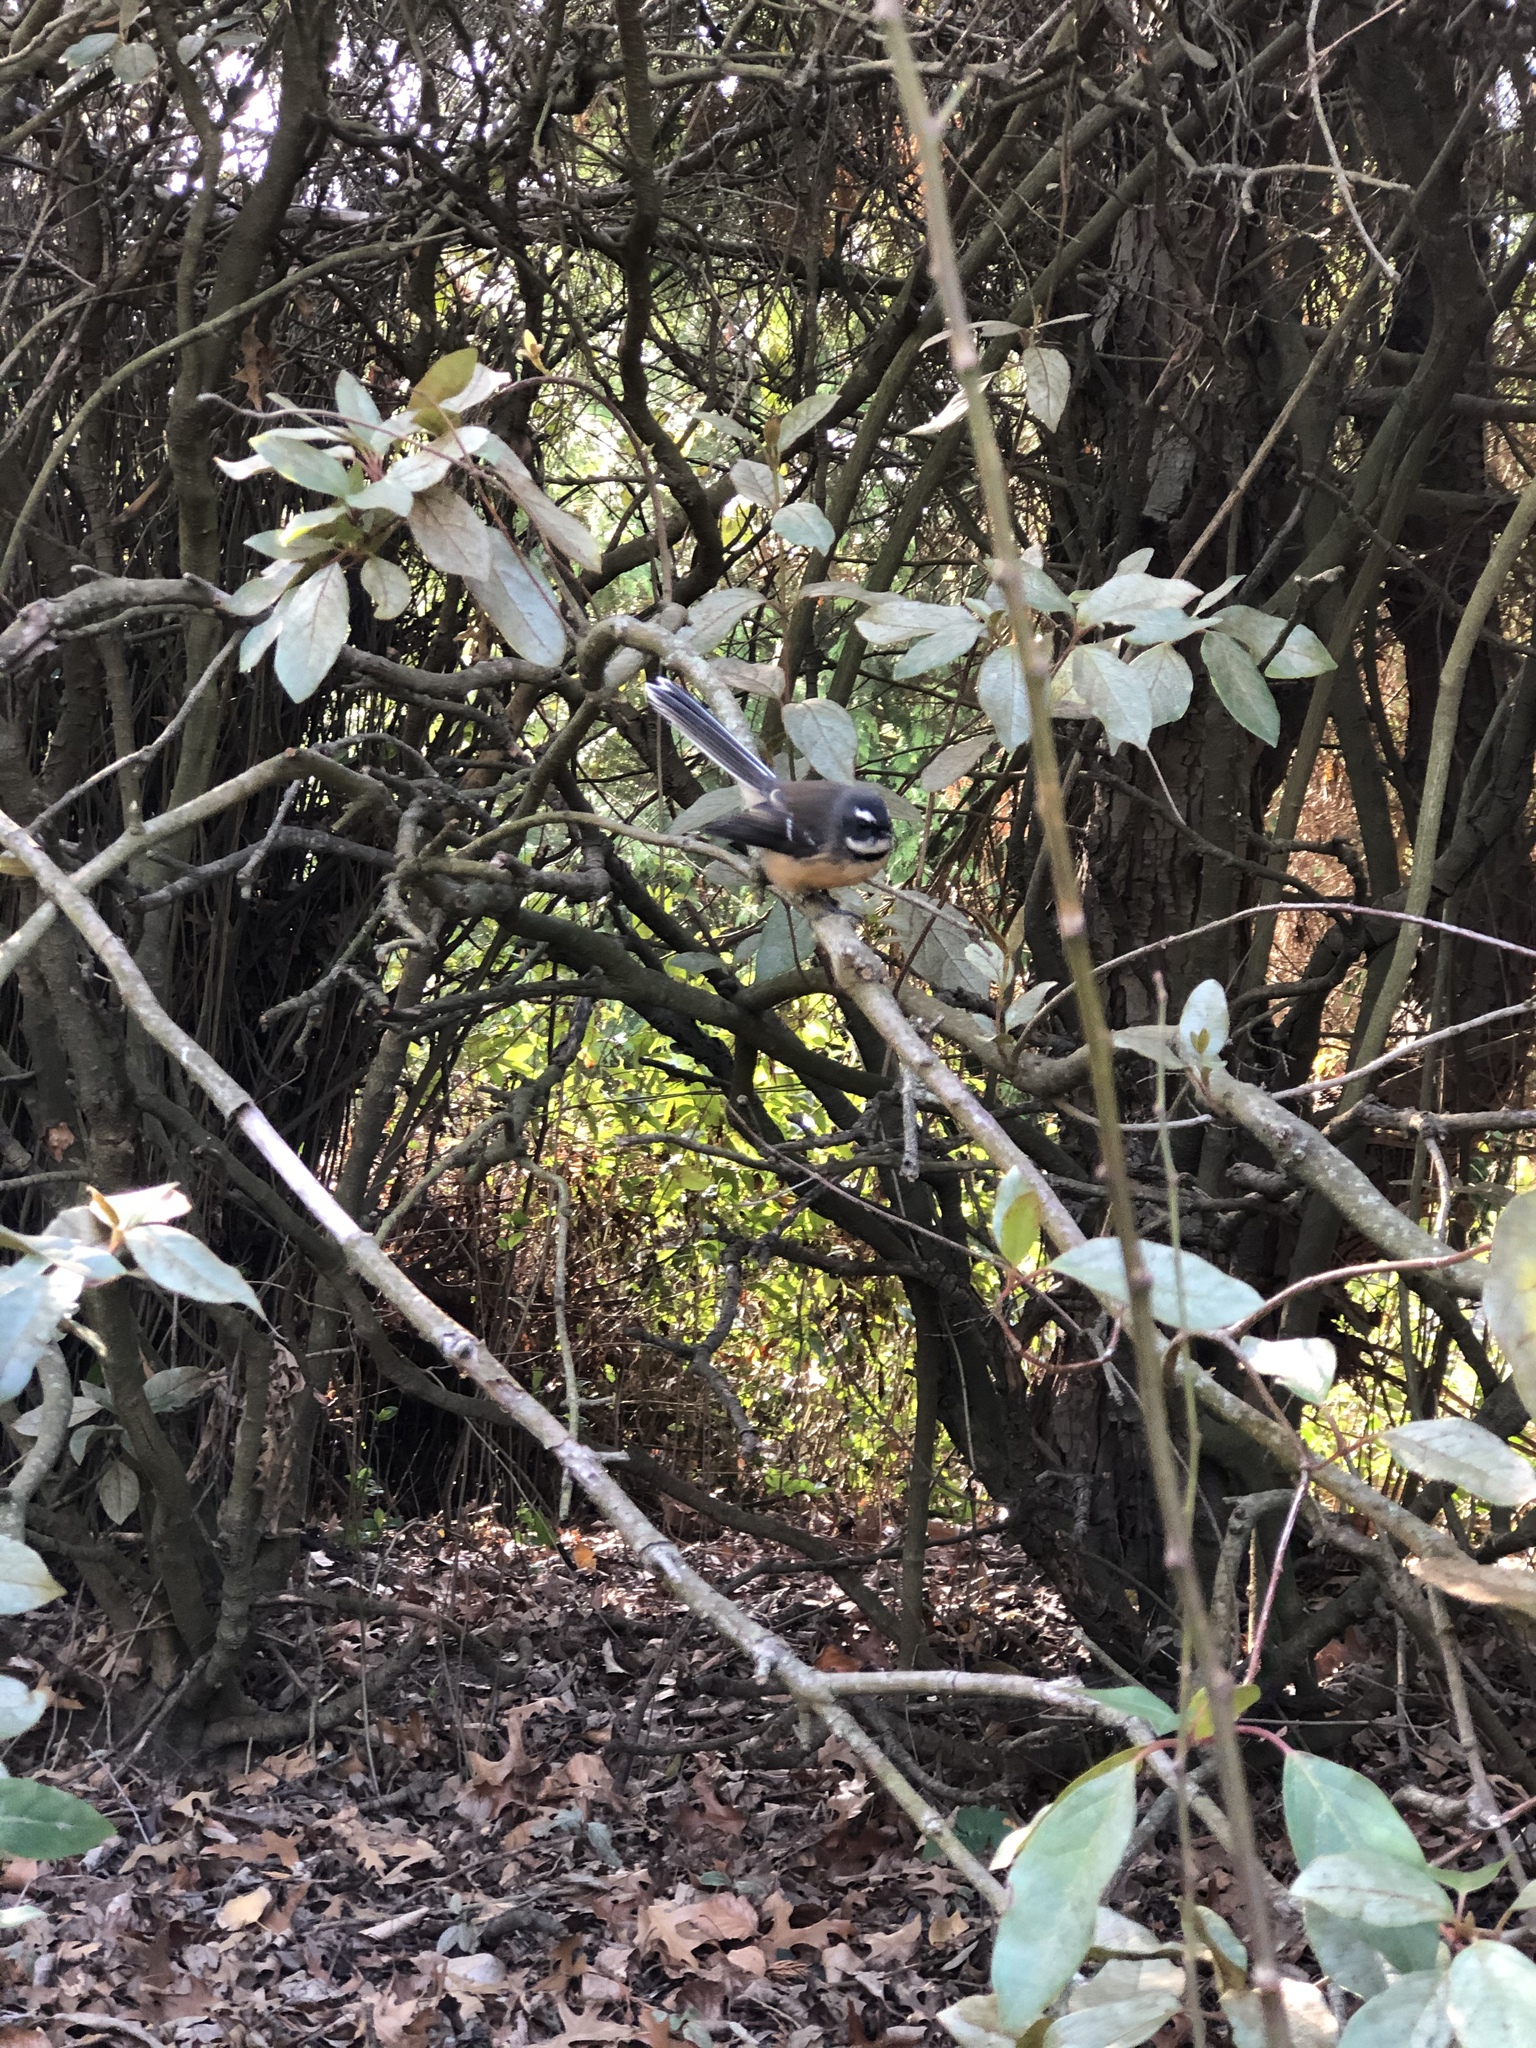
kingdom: Animalia
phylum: Chordata
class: Aves
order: Passeriformes
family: Rhipiduridae
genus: Rhipidura
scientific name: Rhipidura fuliginosa
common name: New zealand fantail
